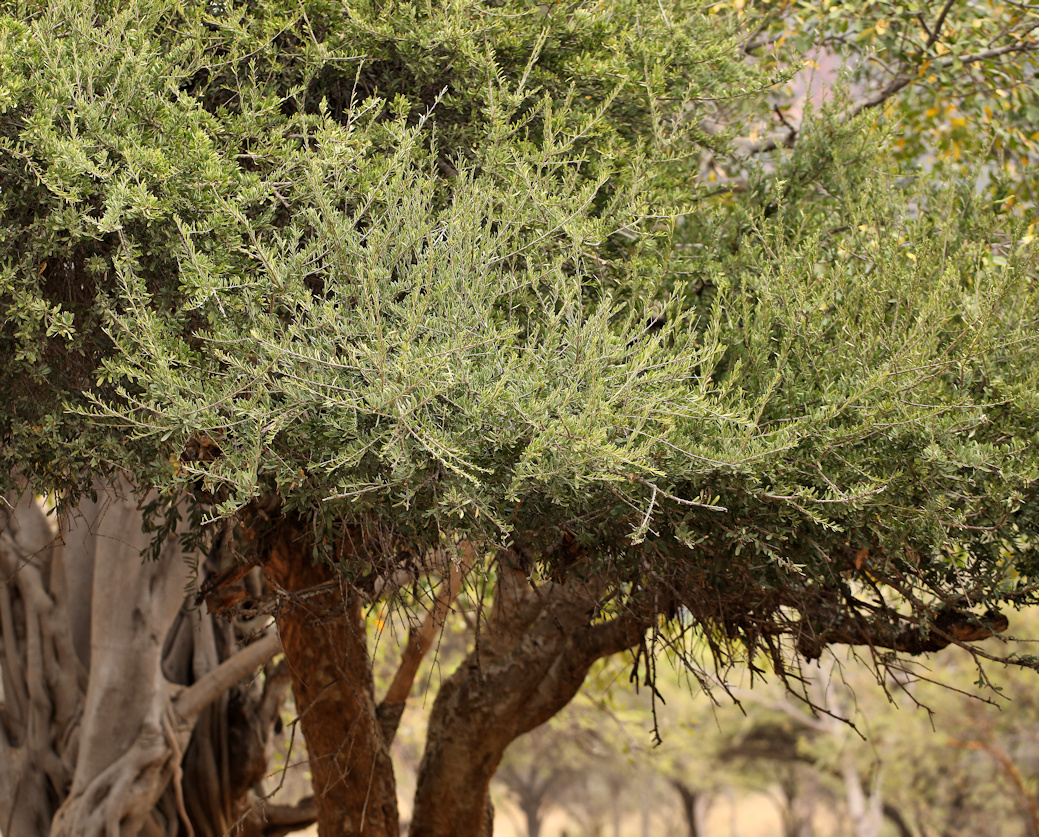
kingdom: Plantae
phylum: Tracheophyta
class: Magnoliopsida
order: Brassicales
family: Capparaceae
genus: Boscia
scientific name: Boscia albitrunca
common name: Caper bush
